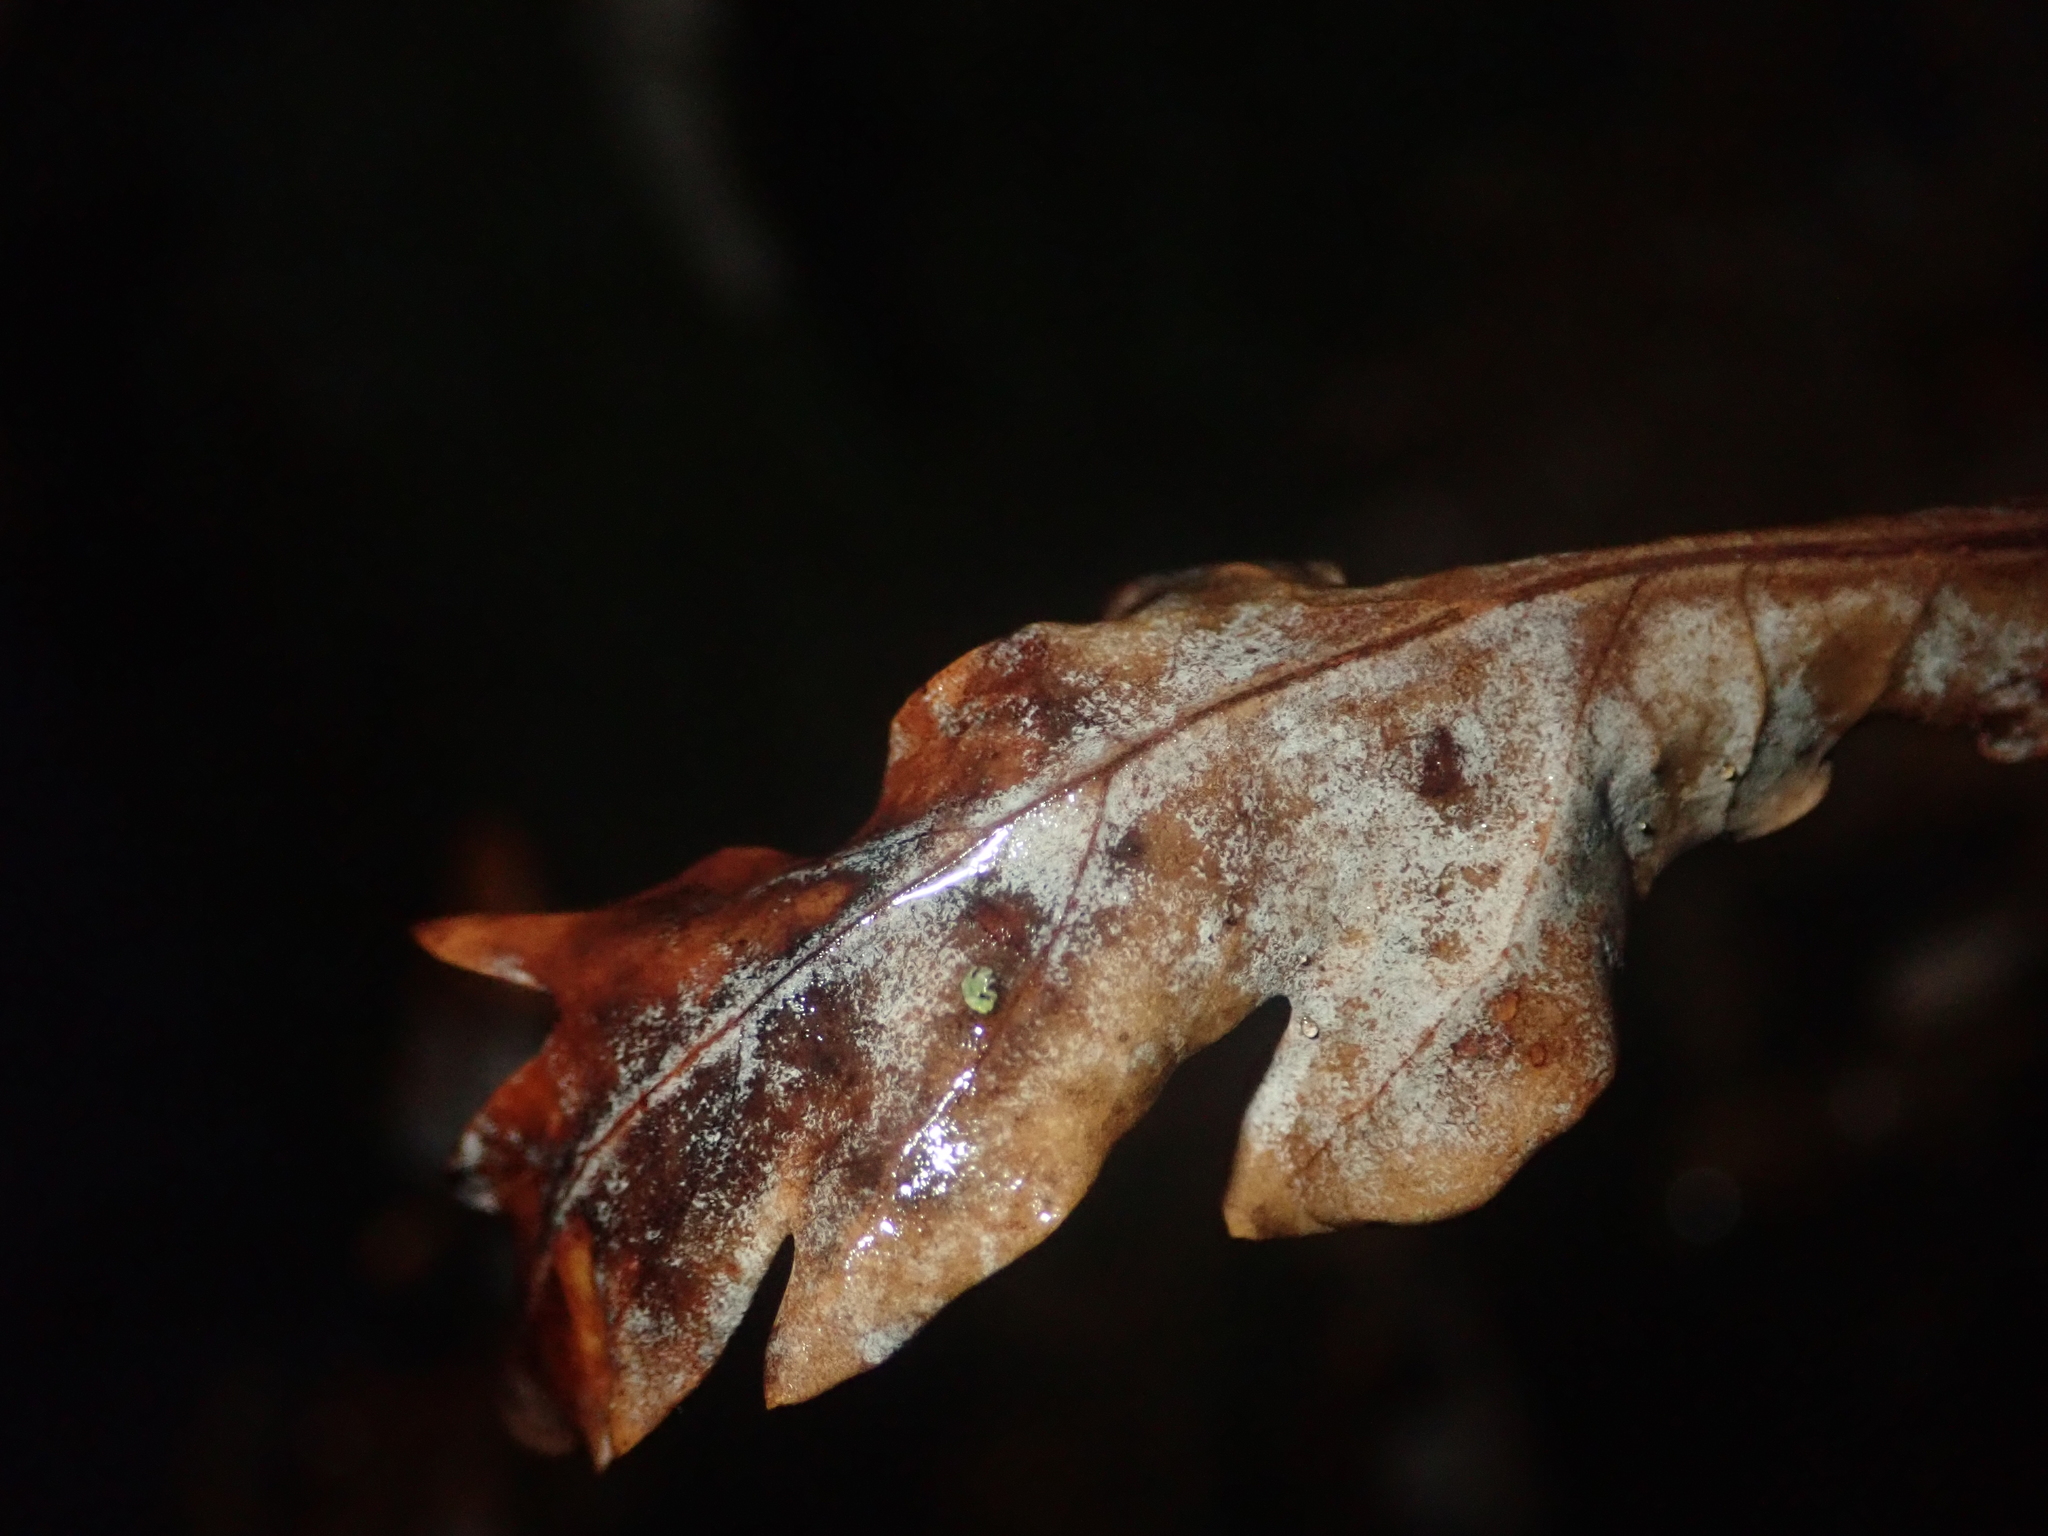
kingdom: Fungi
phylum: Ascomycota
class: Leotiomycetes
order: Helotiales
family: Erysiphaceae
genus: Erysiphe
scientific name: Erysiphe
